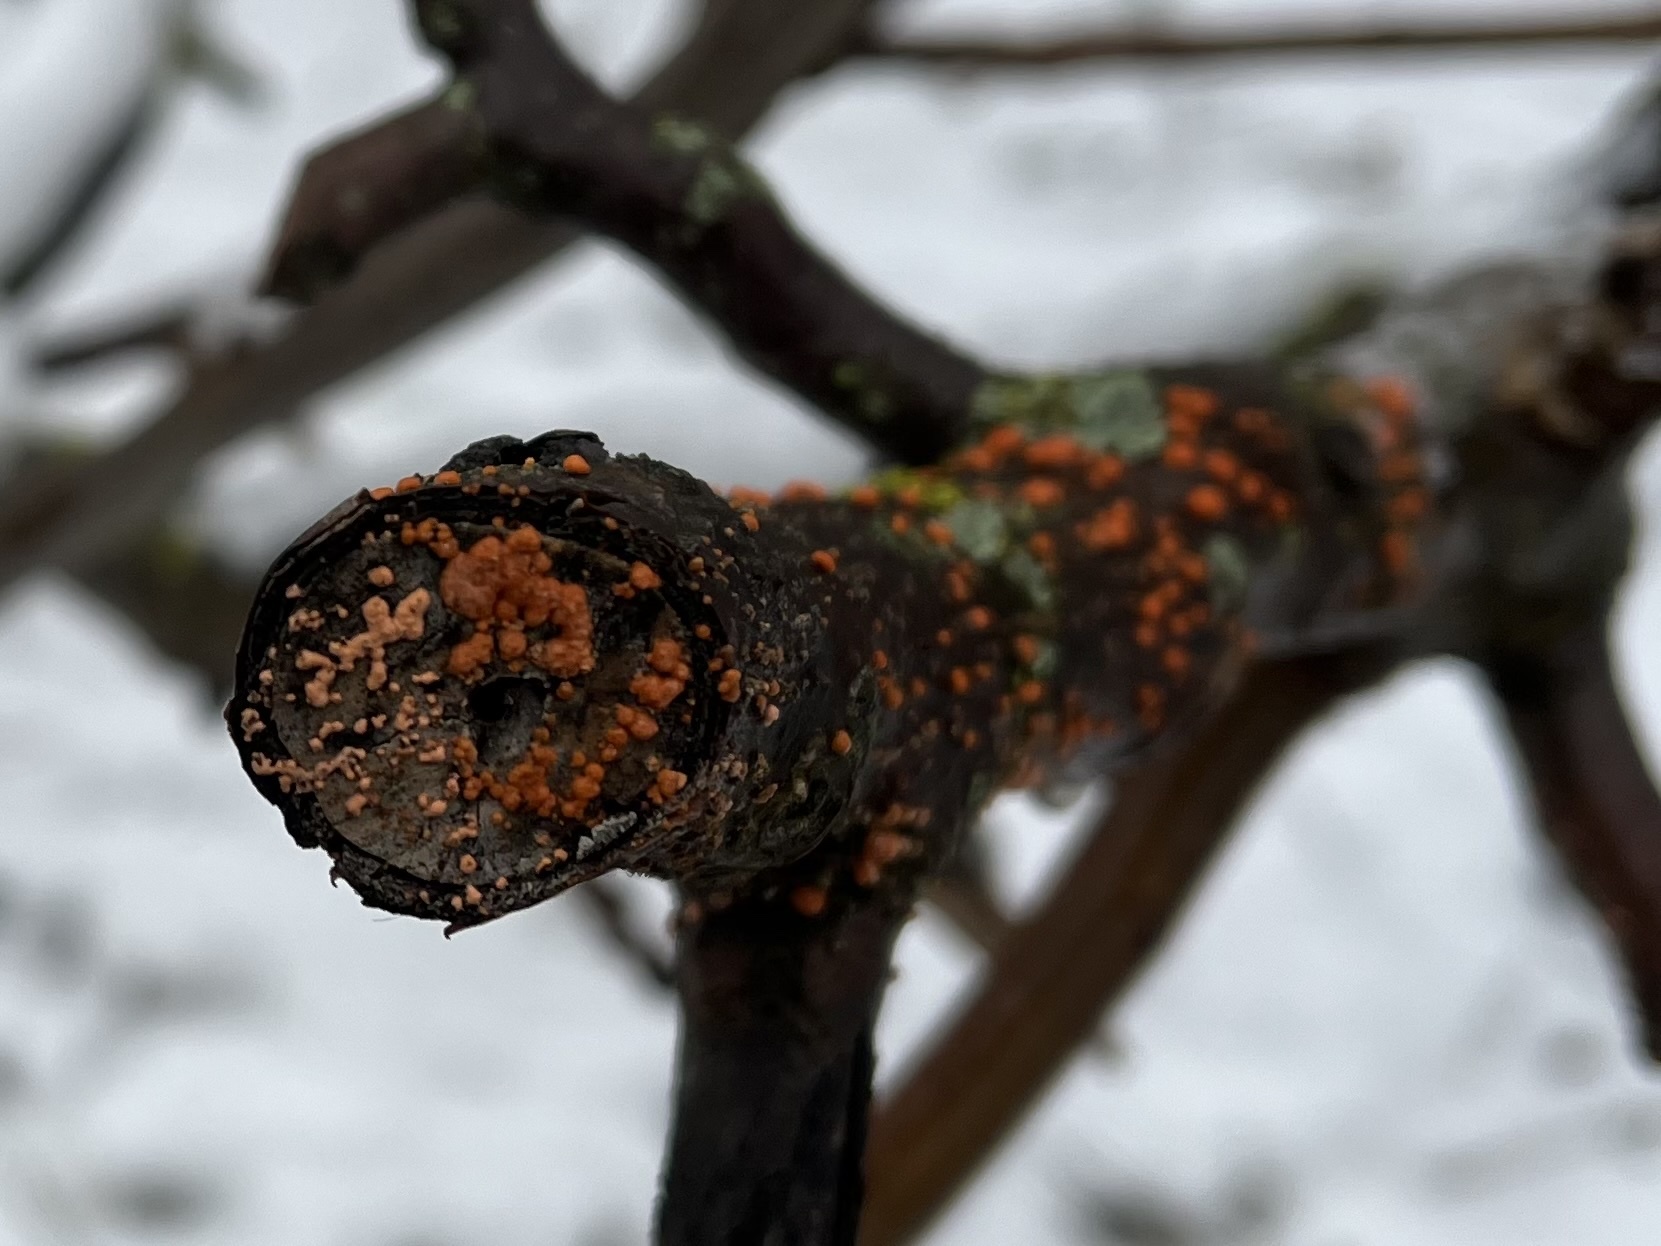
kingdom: Fungi
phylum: Ascomycota
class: Sordariomycetes
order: Hypocreales
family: Nectriaceae
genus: Nectria
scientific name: Nectria cinnabarina
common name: Coral spot
